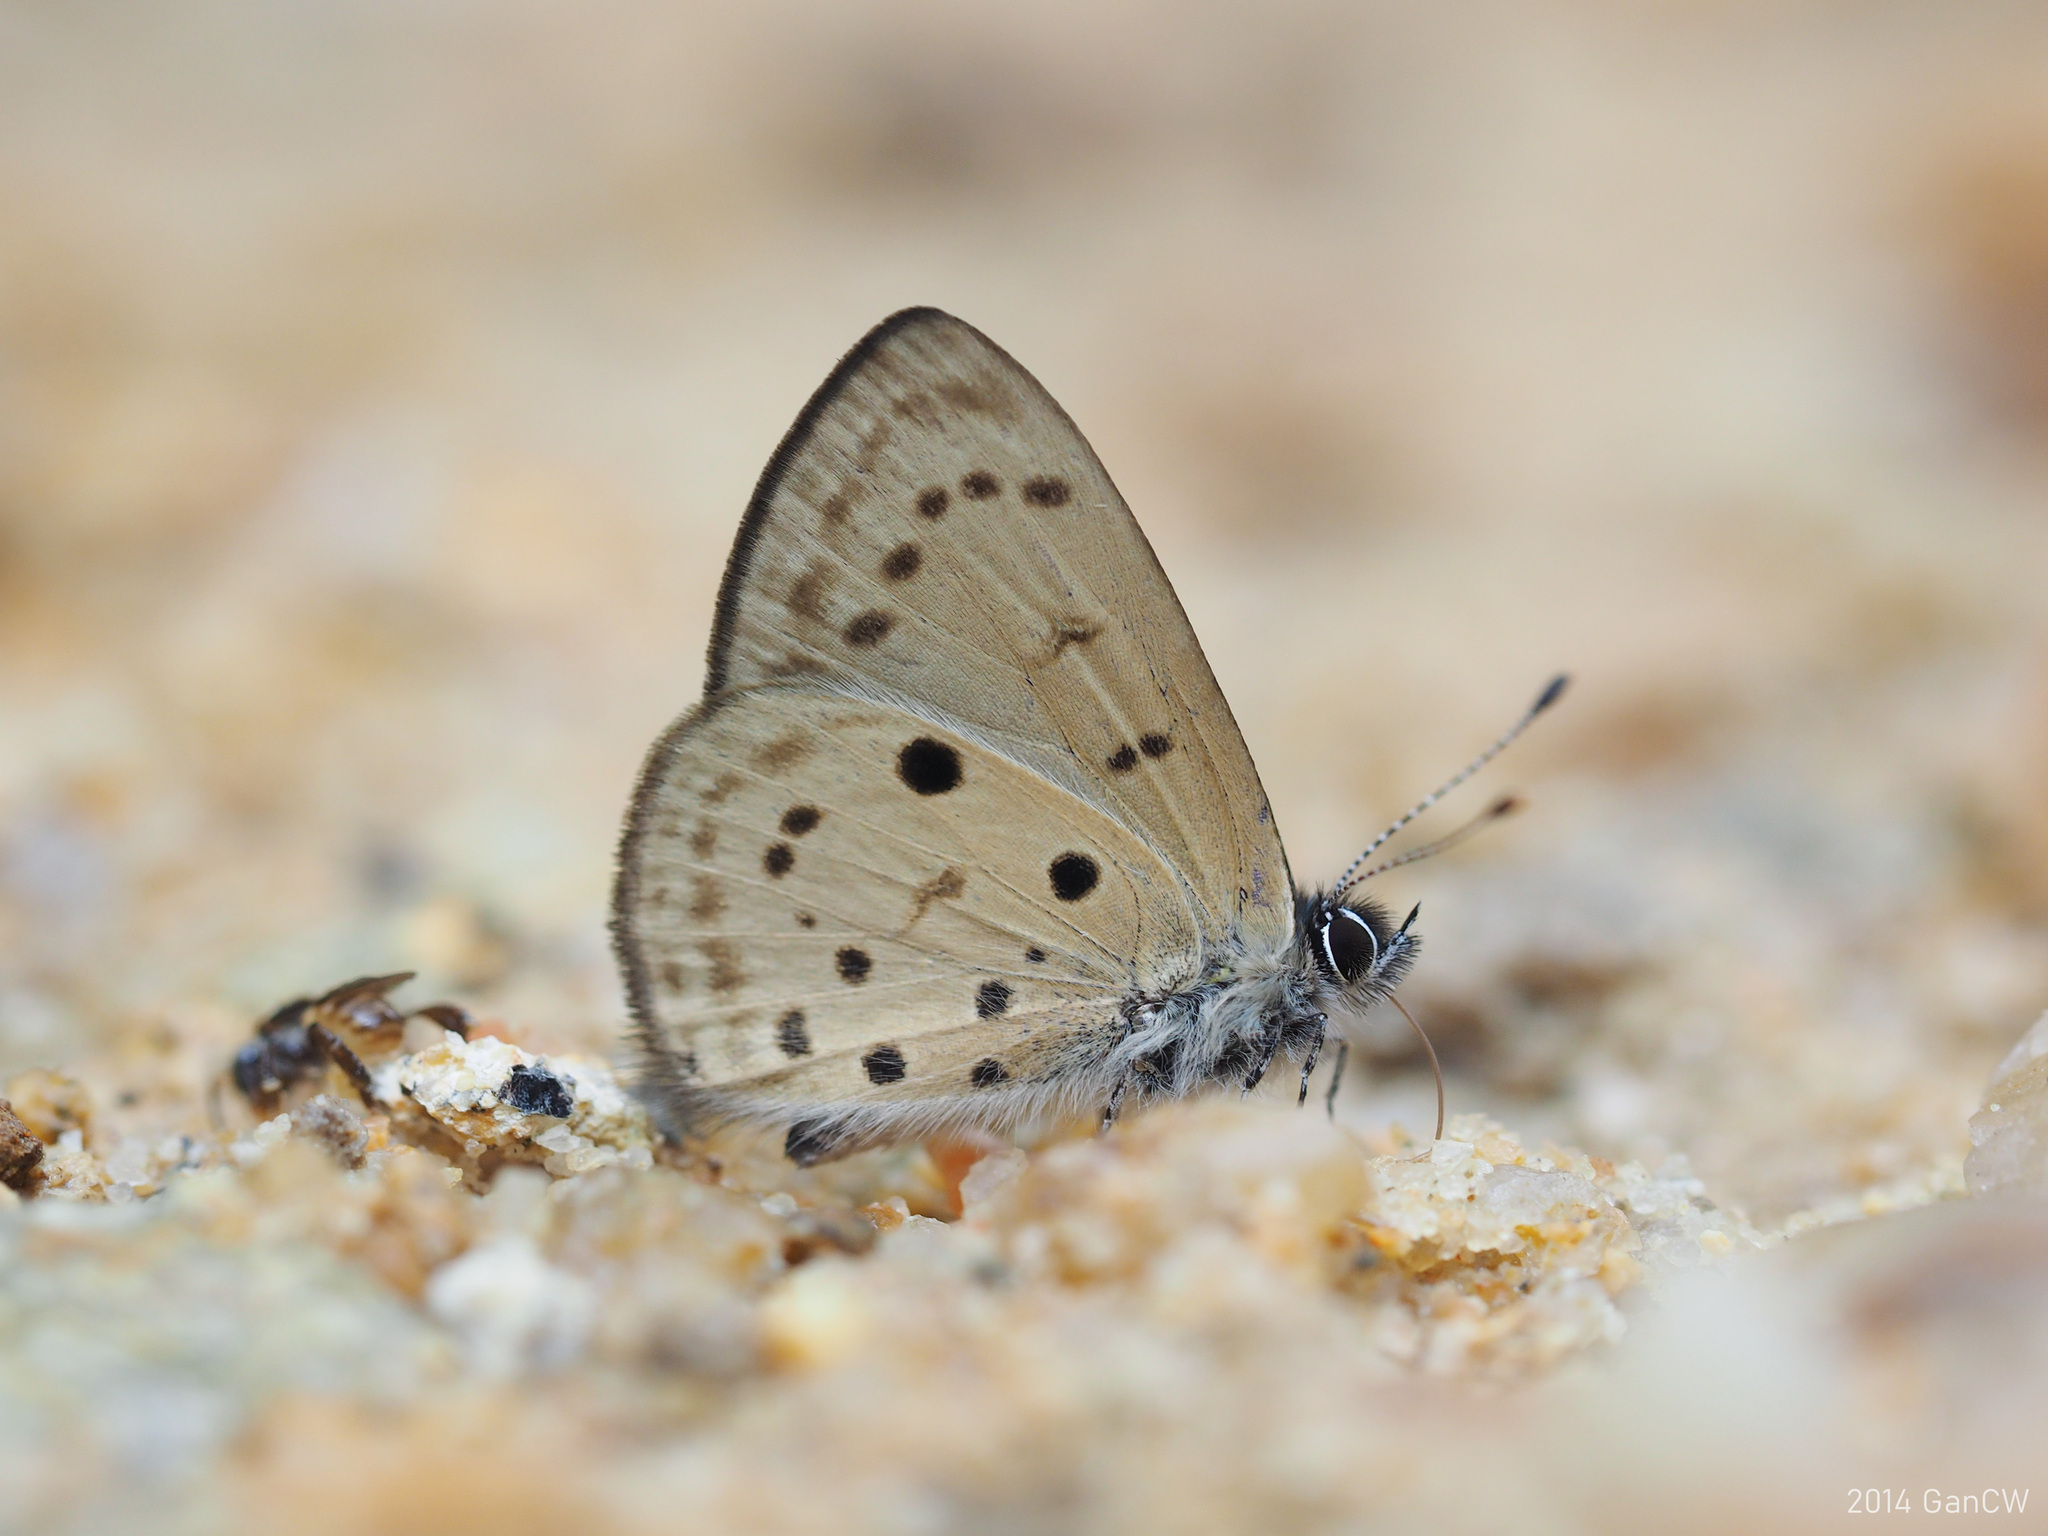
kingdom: Animalia
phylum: Arthropoda
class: Insecta
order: Lepidoptera
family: Lycaenidae
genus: Una
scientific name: Una usta
